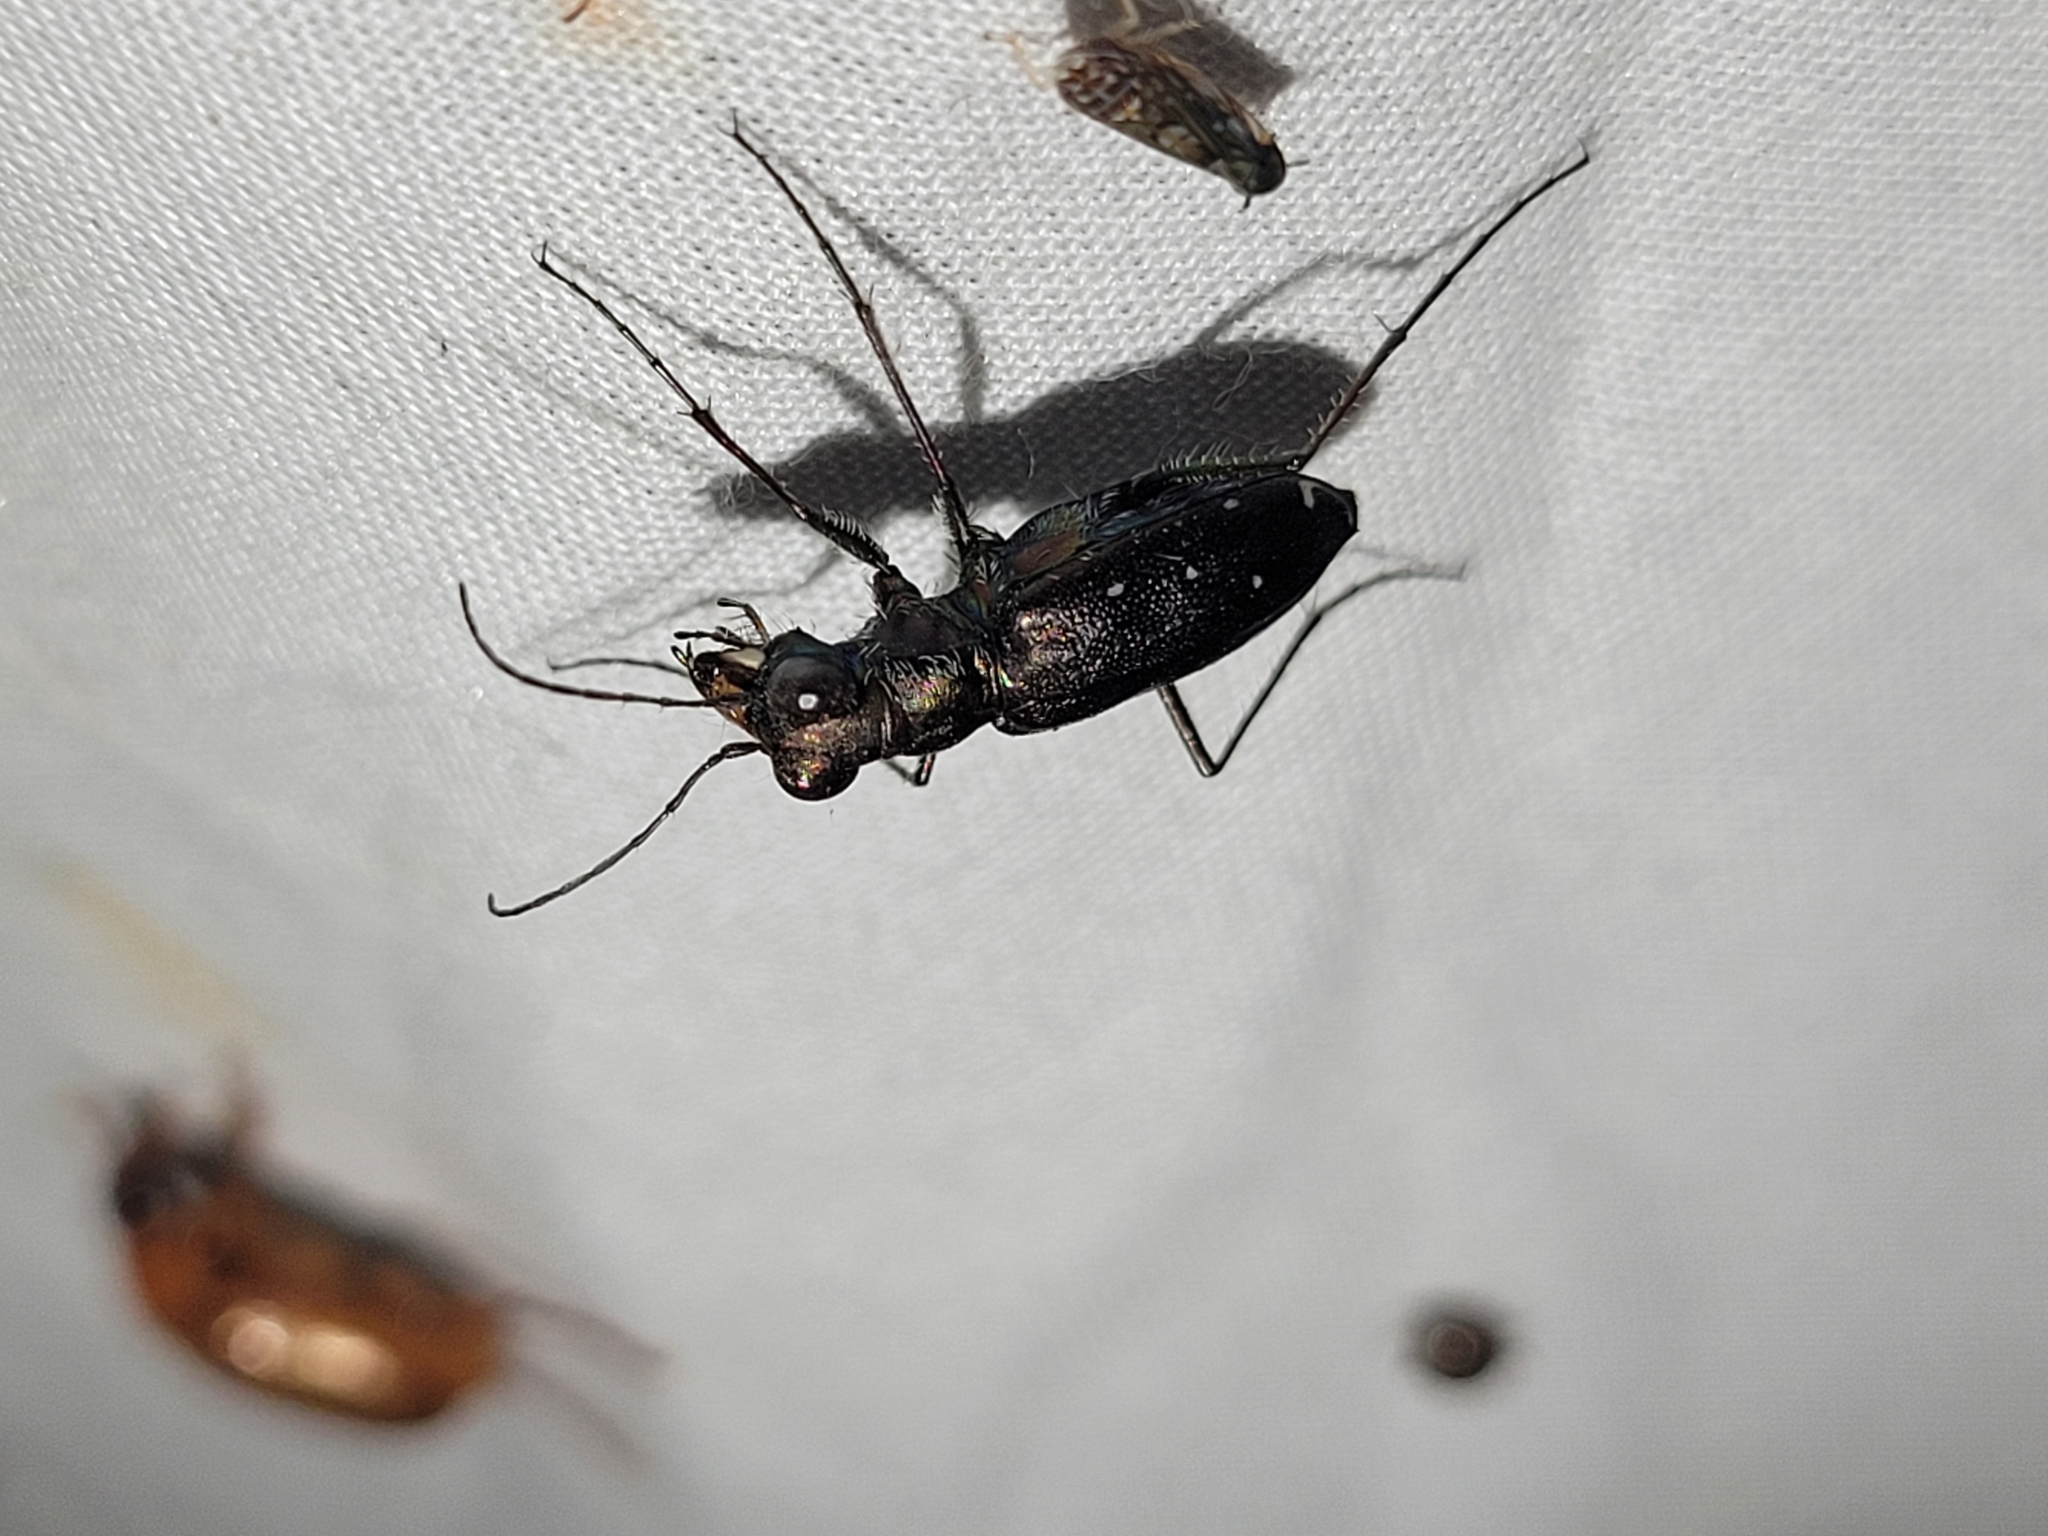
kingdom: Animalia
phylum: Arthropoda
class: Insecta
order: Coleoptera
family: Carabidae
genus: Cicindela
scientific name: Cicindela punctulata
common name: Punctured tiger beetle
